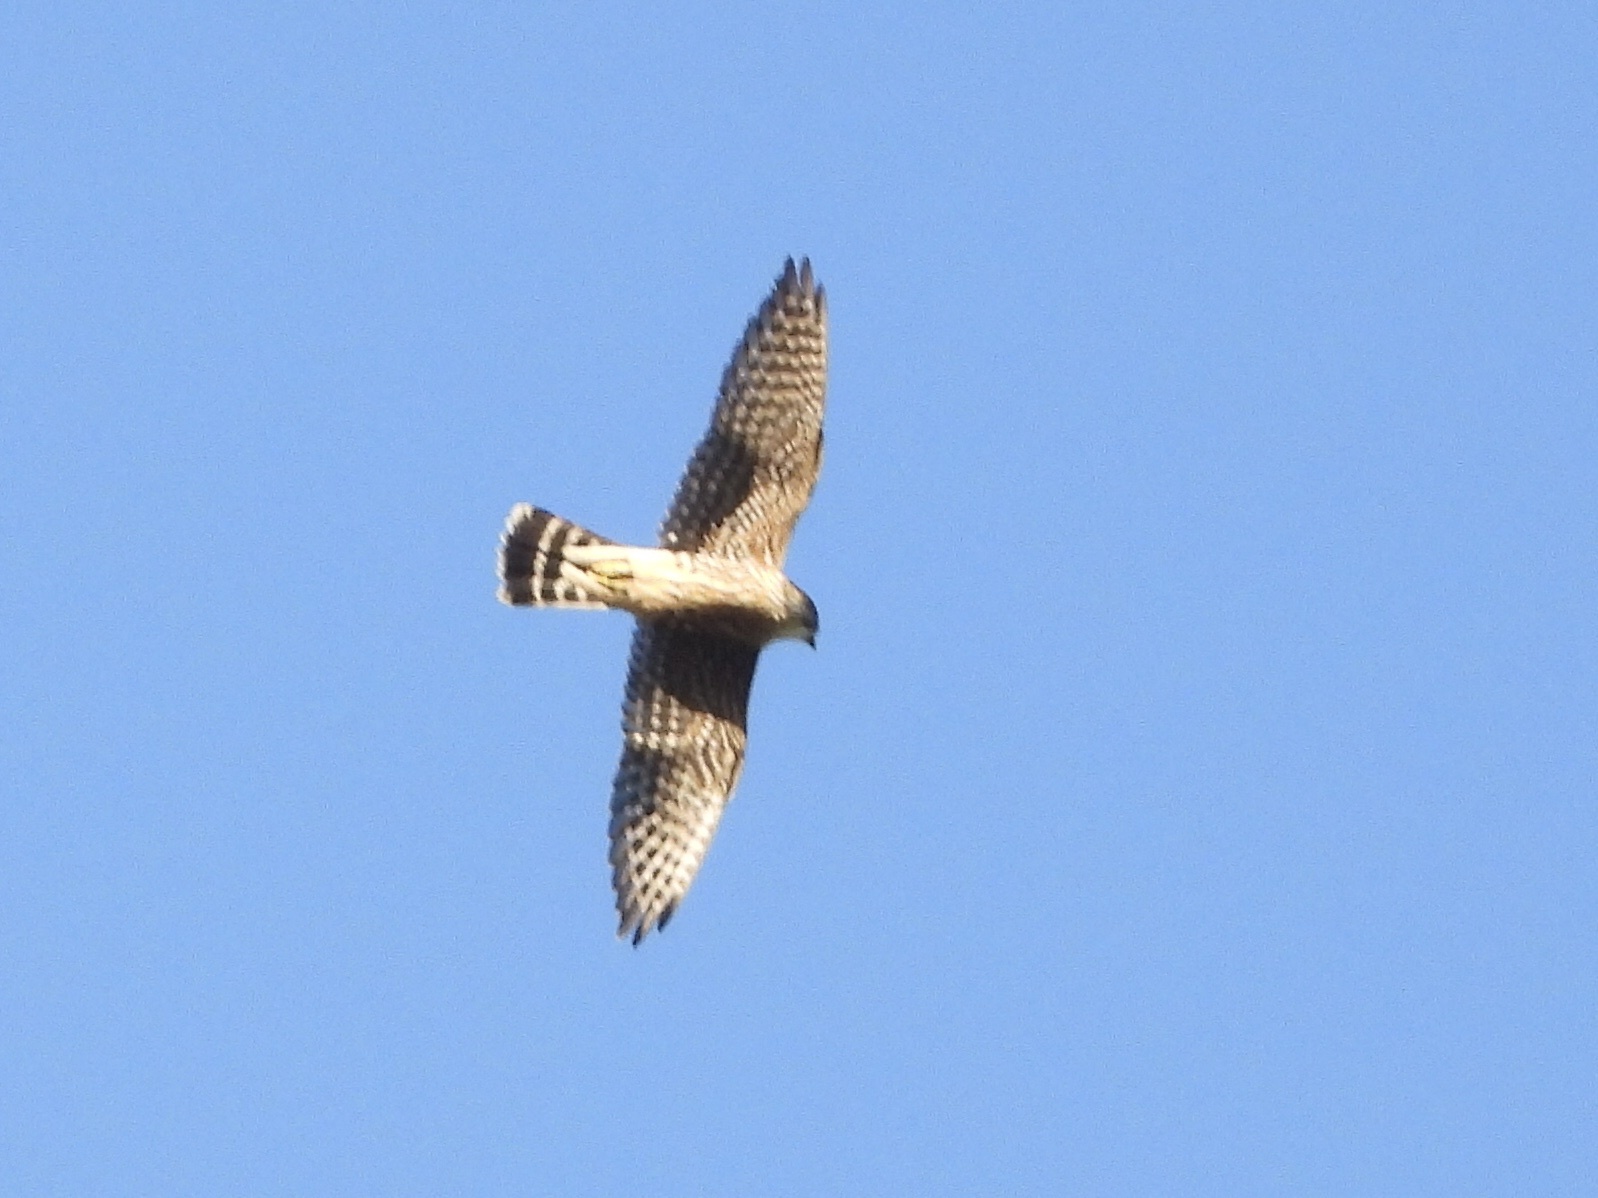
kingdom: Animalia
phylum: Chordata
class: Aves
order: Falconiformes
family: Falconidae
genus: Falco
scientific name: Falco columbarius
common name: Merlin
